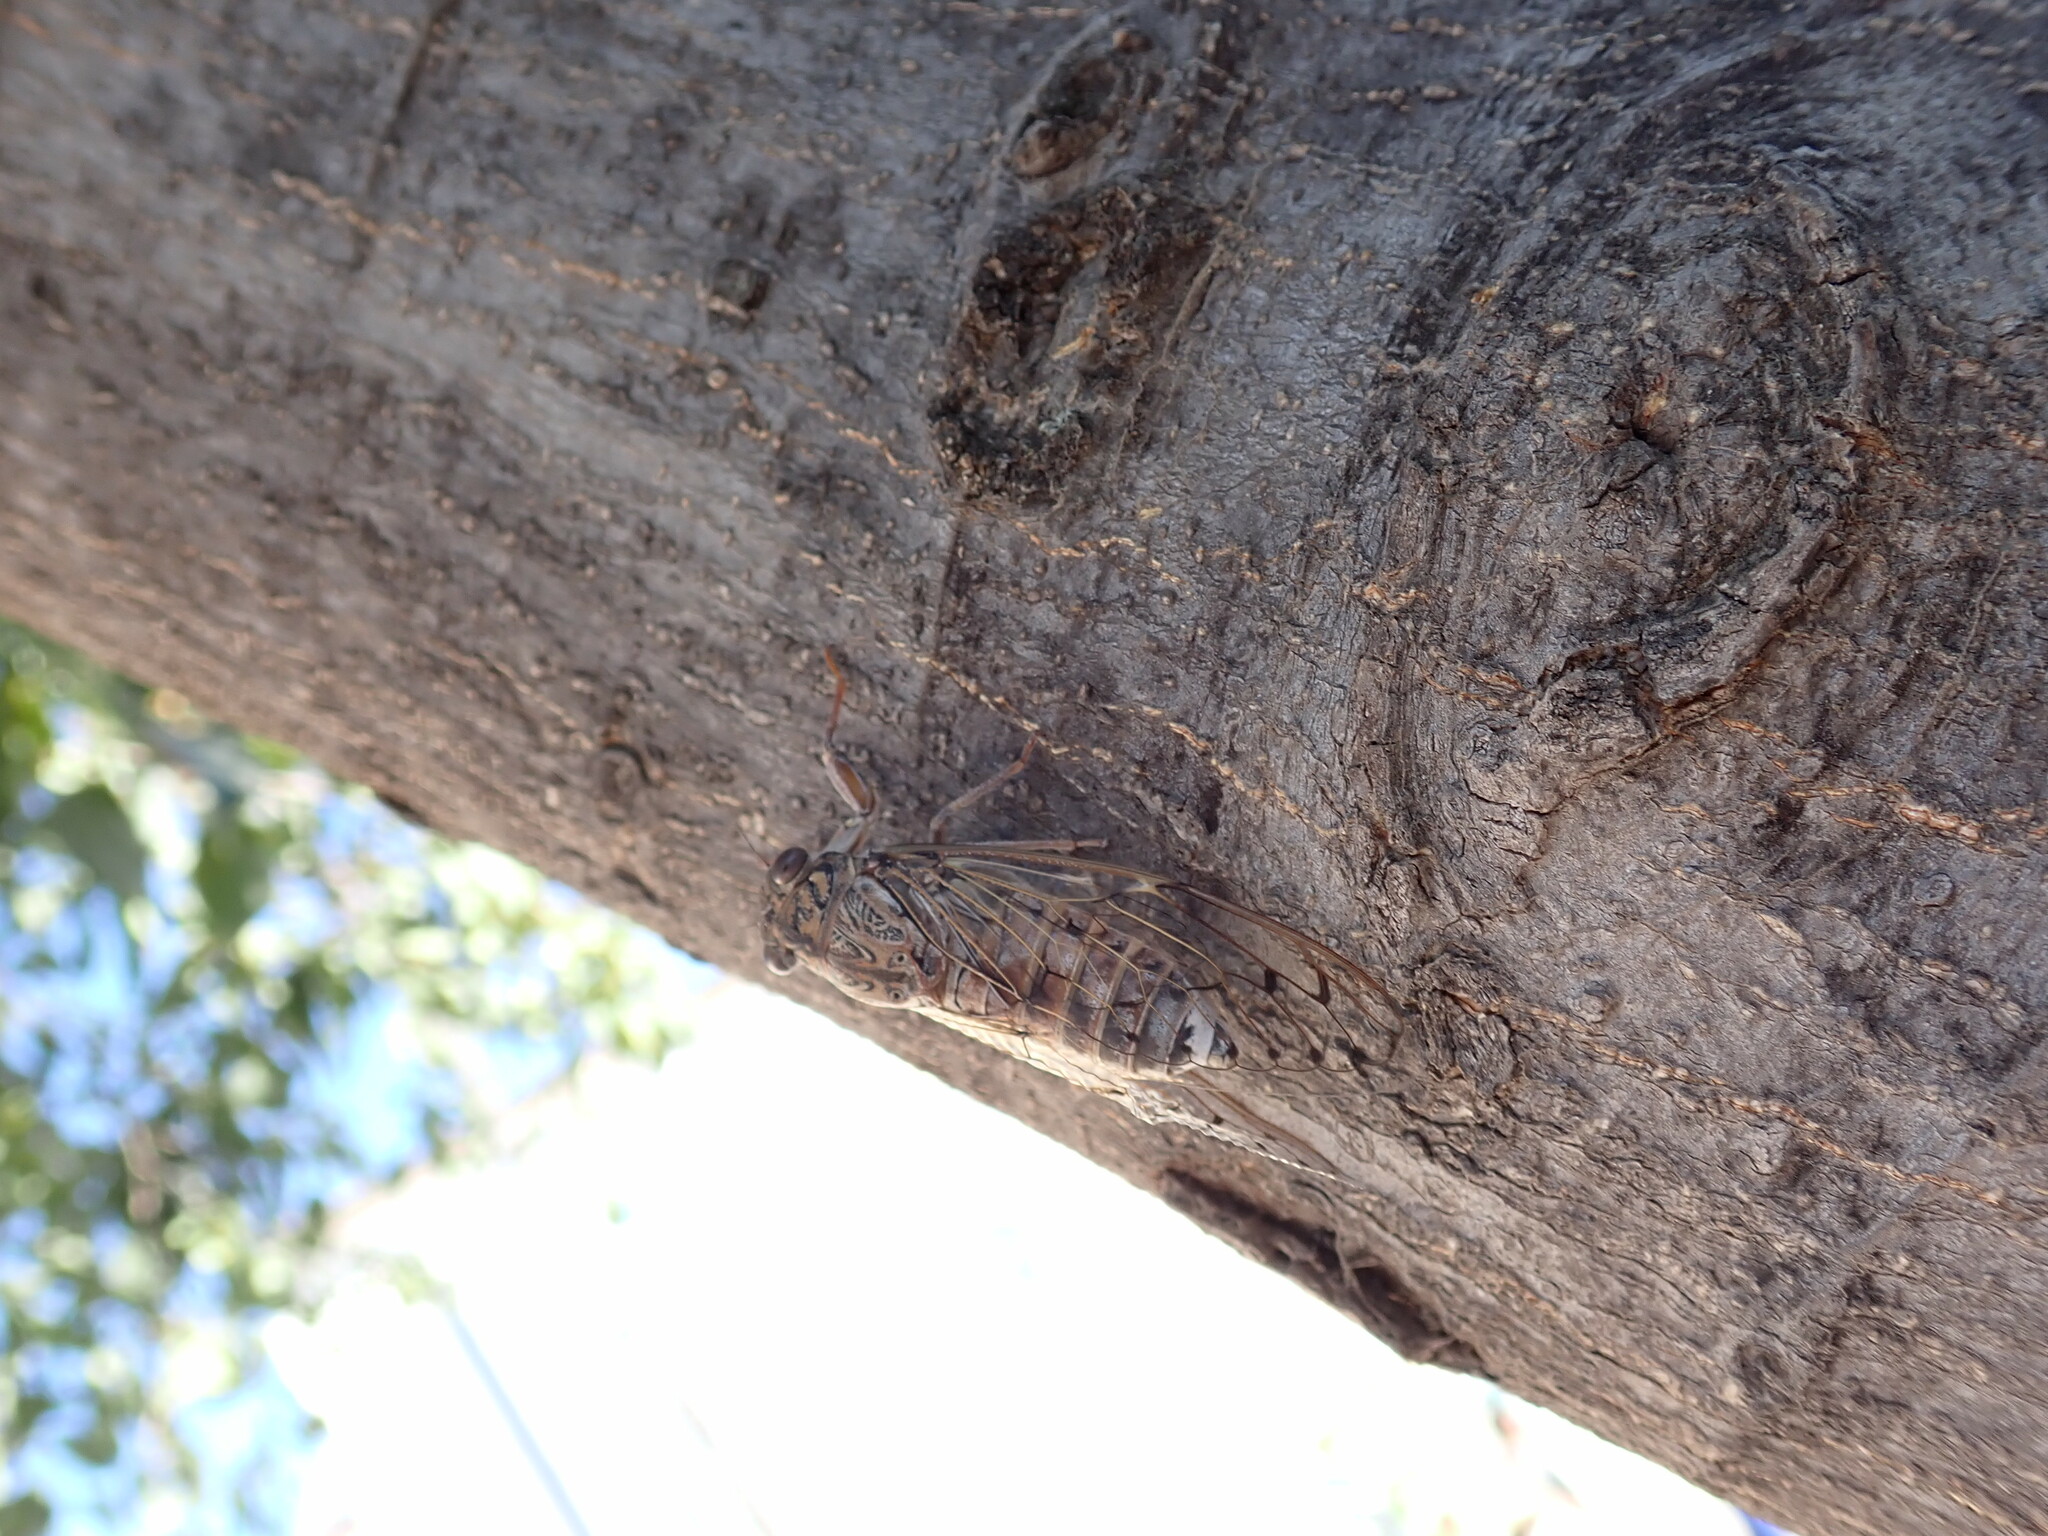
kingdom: Animalia
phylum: Arthropoda
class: Insecta
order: Hemiptera
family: Cicadidae
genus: Cicada
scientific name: Cicada barbara
